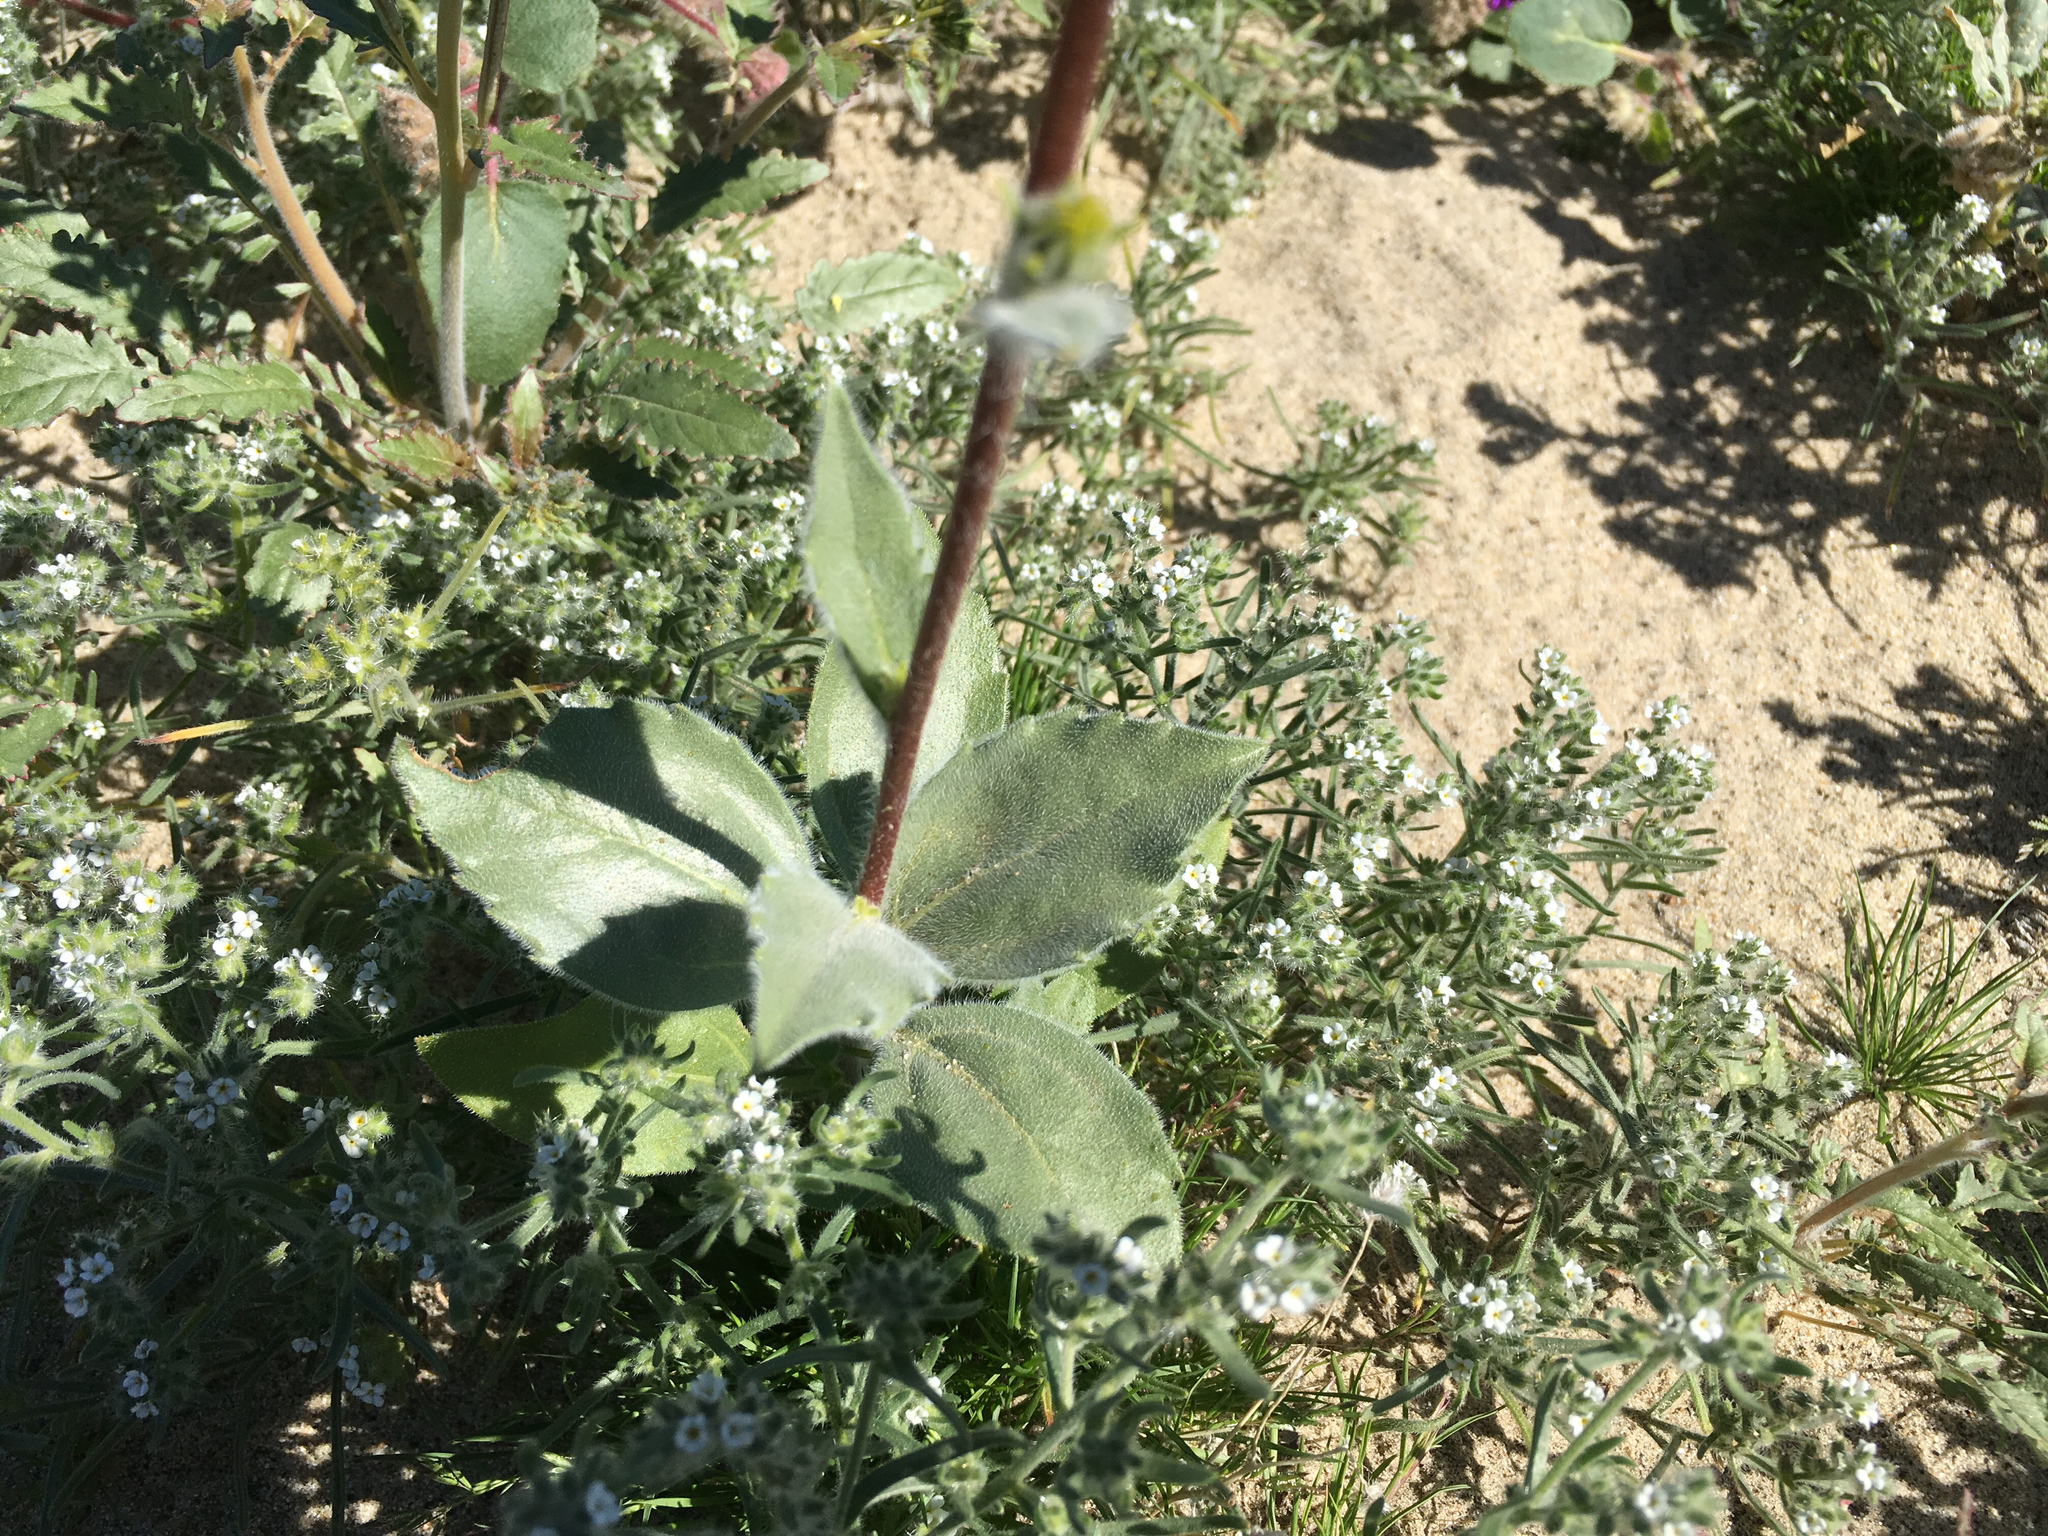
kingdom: Plantae
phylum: Tracheophyta
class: Magnoliopsida
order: Asterales
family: Asteraceae
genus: Geraea
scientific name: Geraea canescens
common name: Desert-gold
